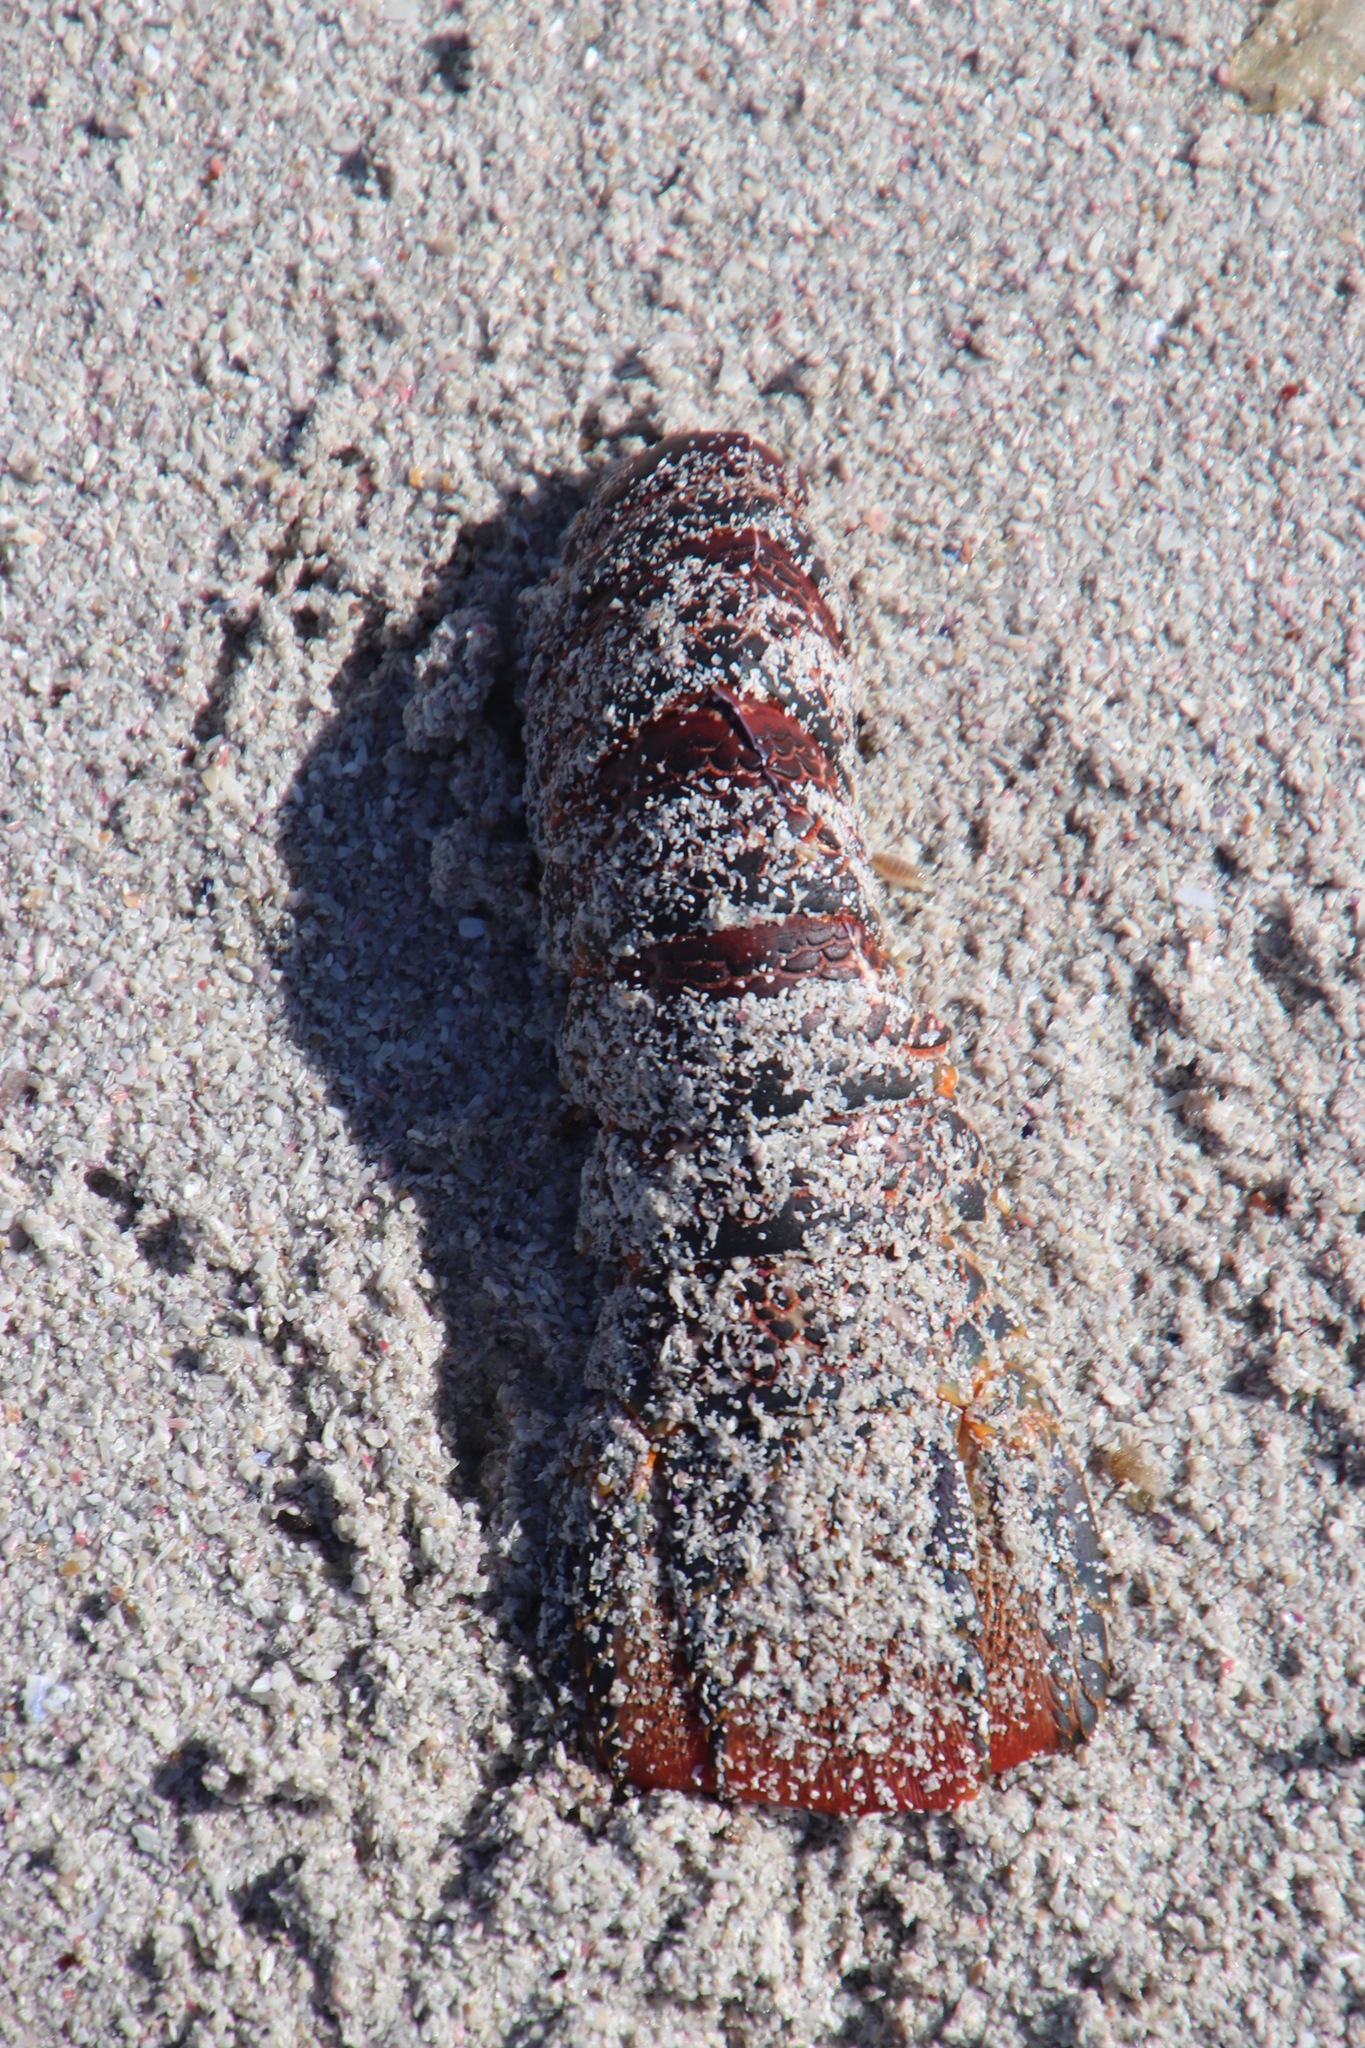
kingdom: Animalia
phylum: Arthropoda
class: Malacostraca
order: Decapoda
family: Palinuridae
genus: Jasus
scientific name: Jasus lalandii
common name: Cape rock lobster
